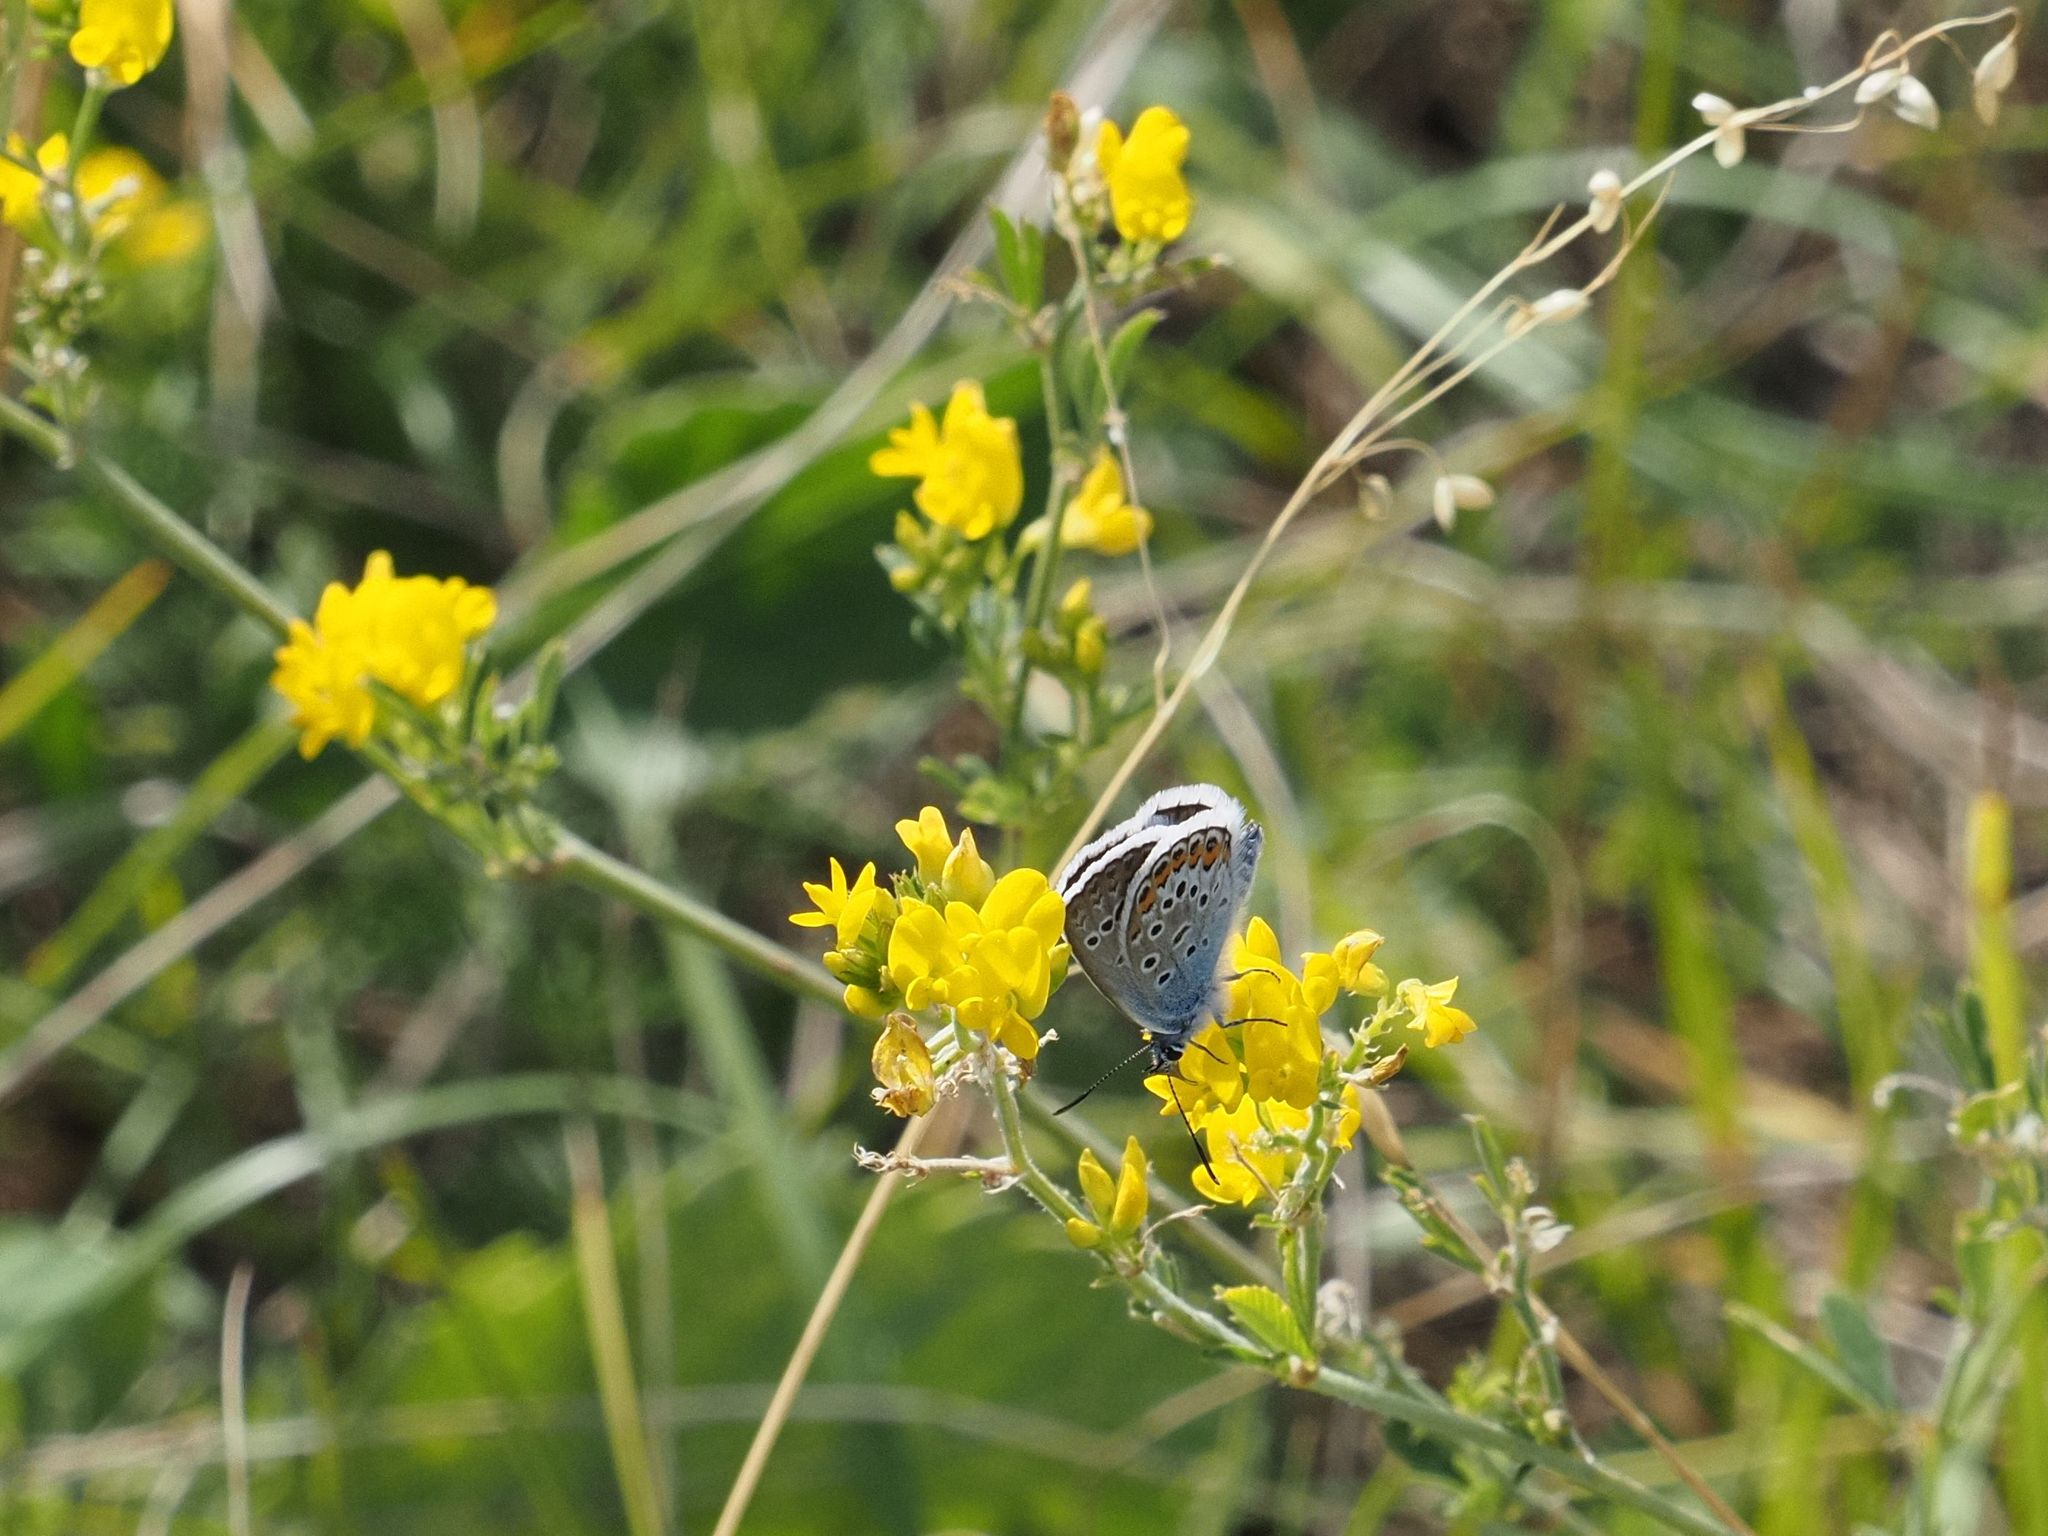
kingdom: Plantae
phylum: Tracheophyta
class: Magnoliopsida
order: Fabales
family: Fabaceae
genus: Medicago
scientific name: Medicago falcata
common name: Sickle medick
